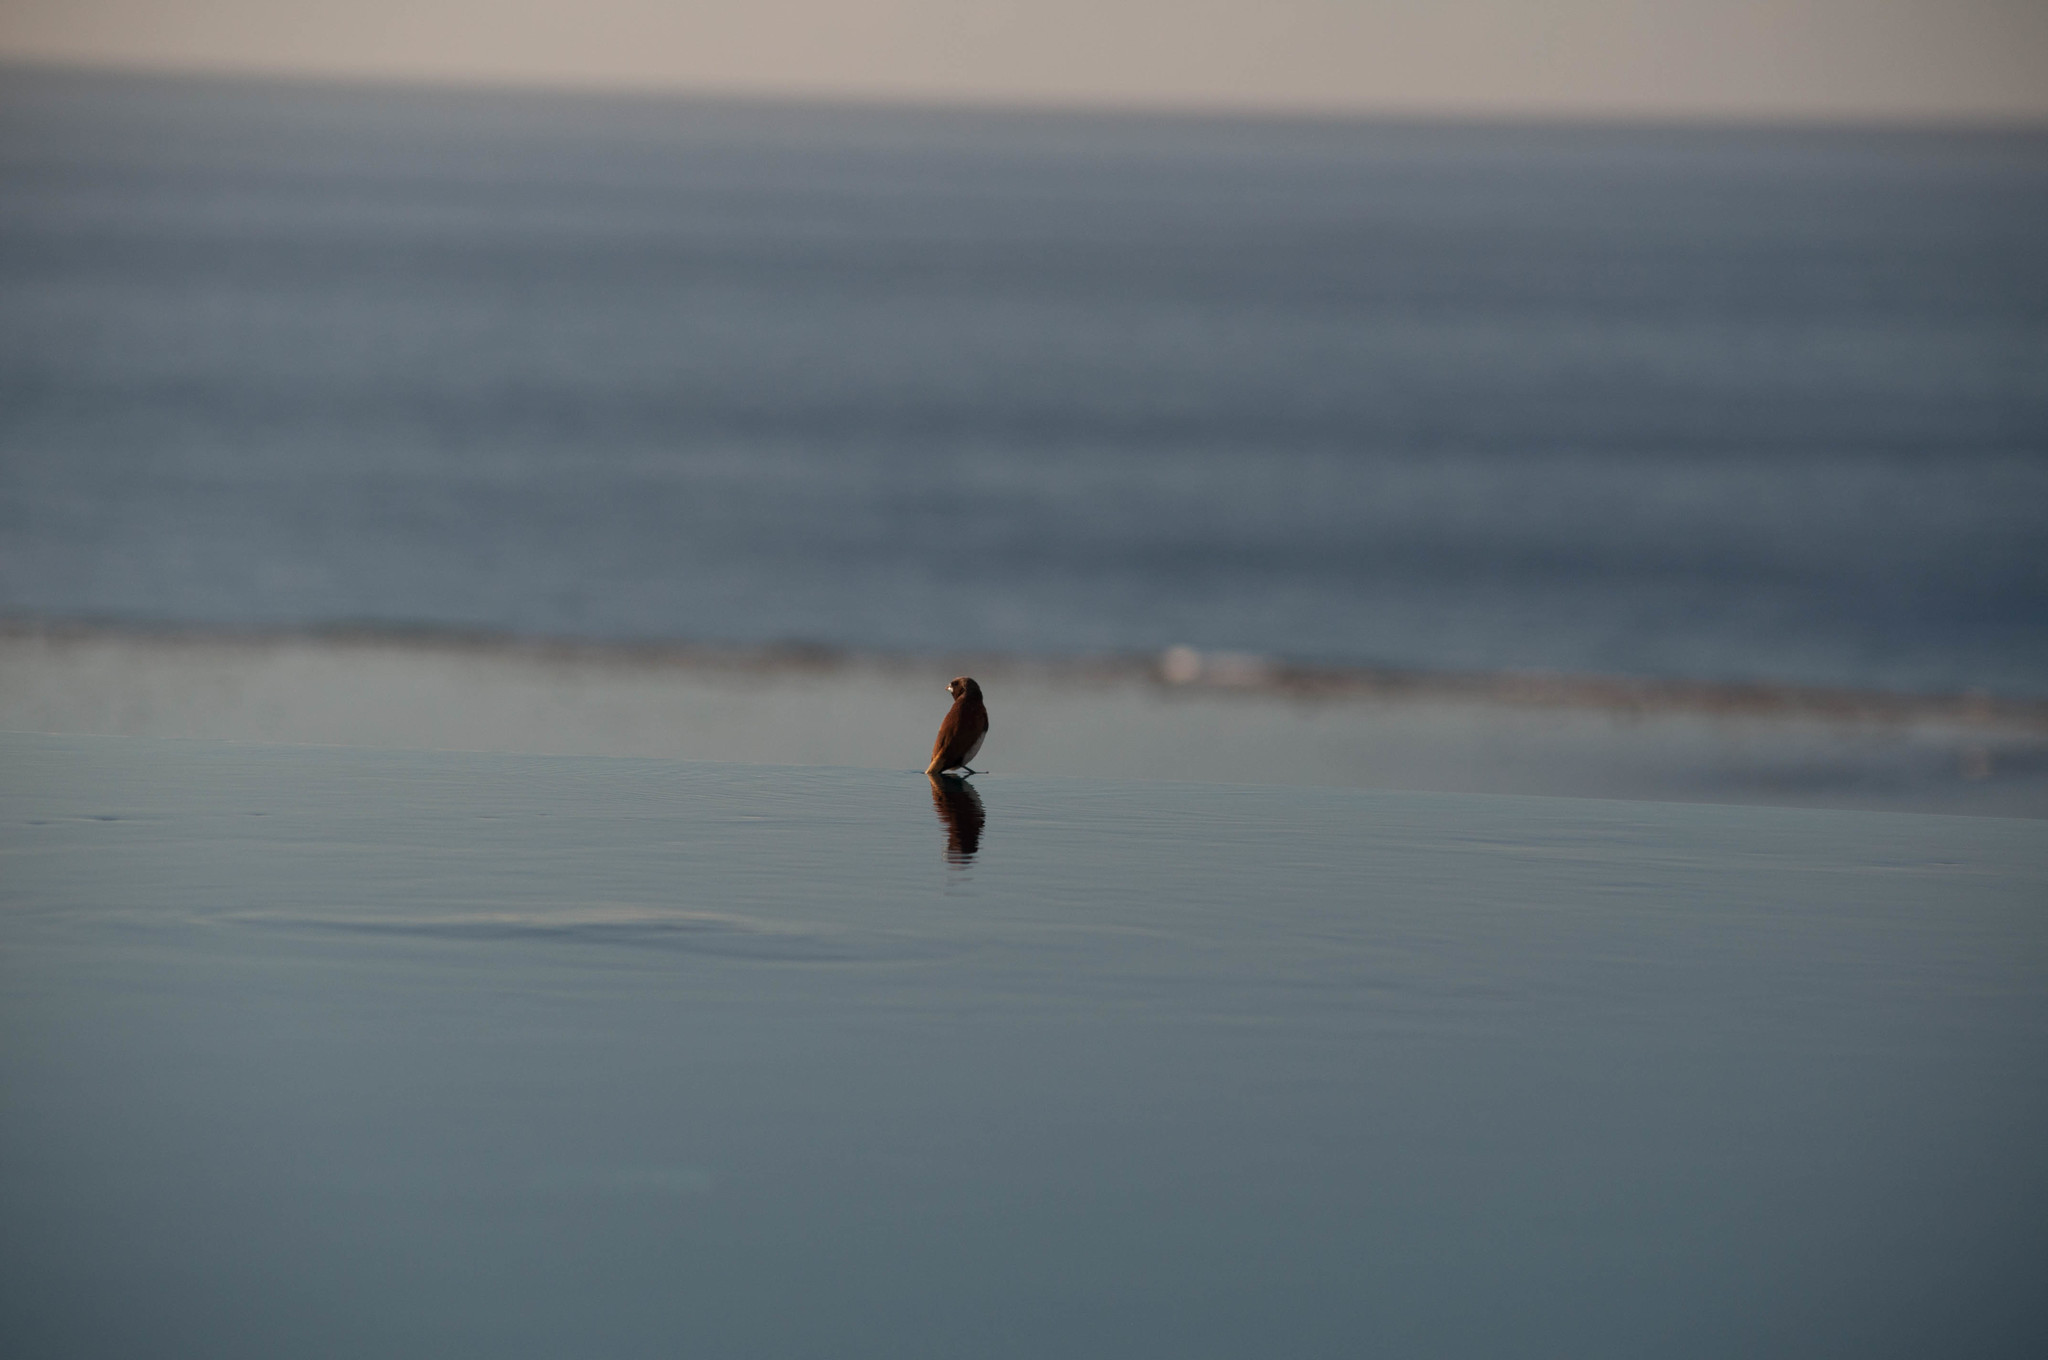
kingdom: Animalia
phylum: Chordata
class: Aves
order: Passeriformes
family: Estrildidae
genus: Lonchura
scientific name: Lonchura castaneothorax
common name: Chestnut-breasted mannikin
